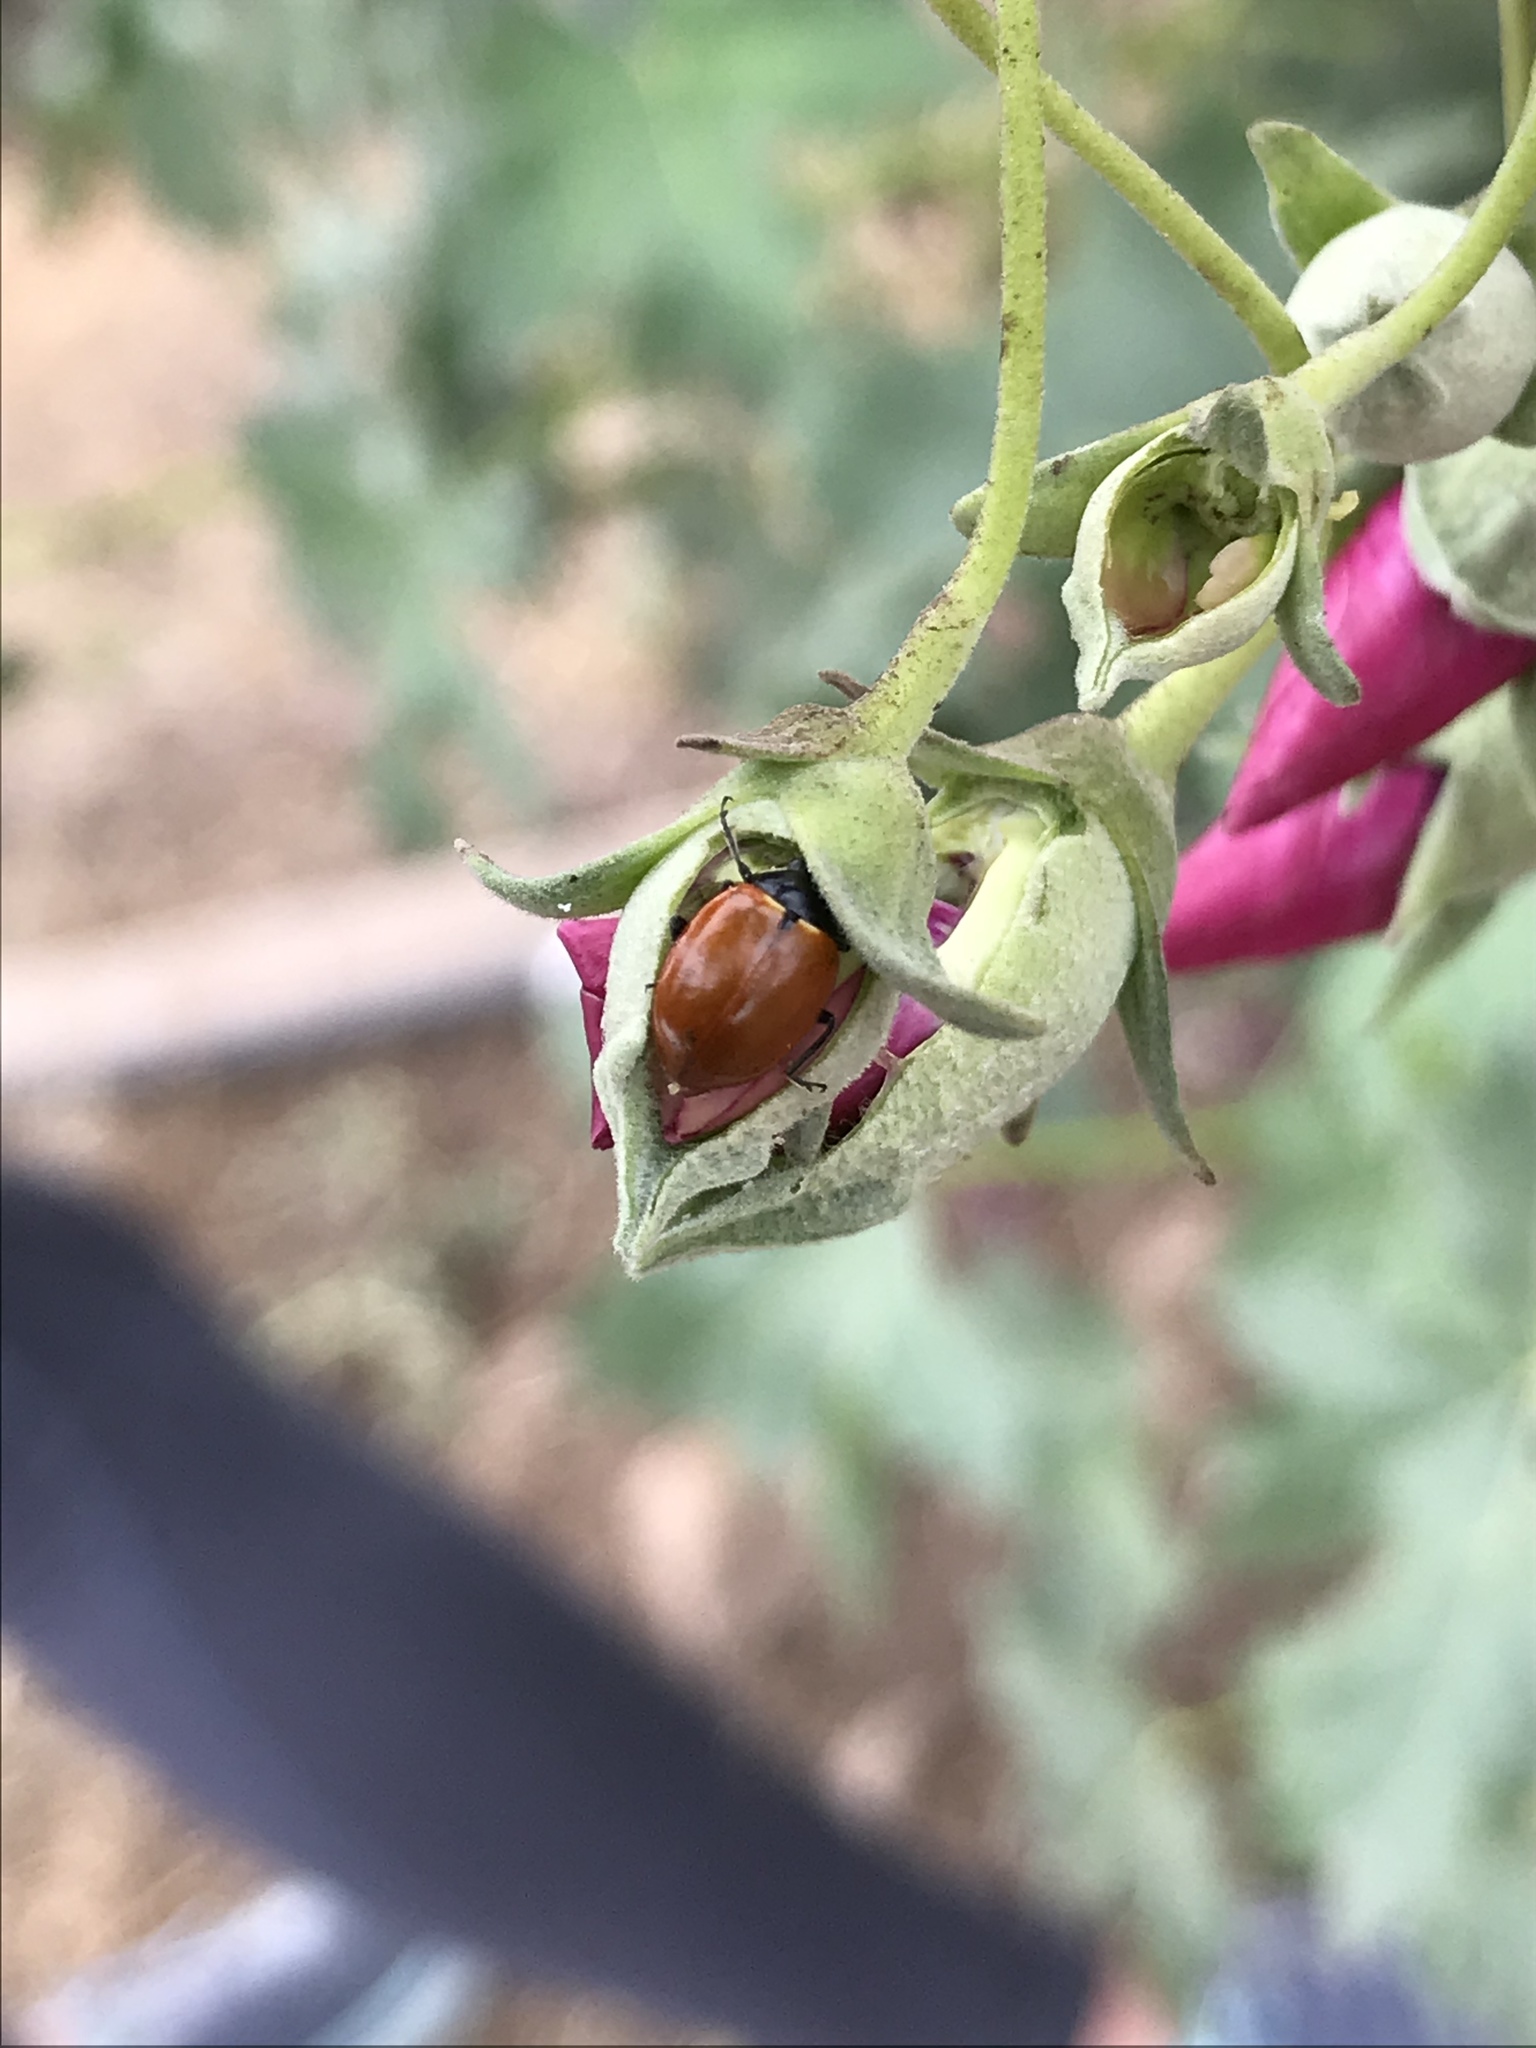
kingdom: Animalia
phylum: Arthropoda
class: Insecta
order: Coleoptera
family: Coccinellidae
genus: Hippodamia
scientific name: Hippodamia quinquesignata
